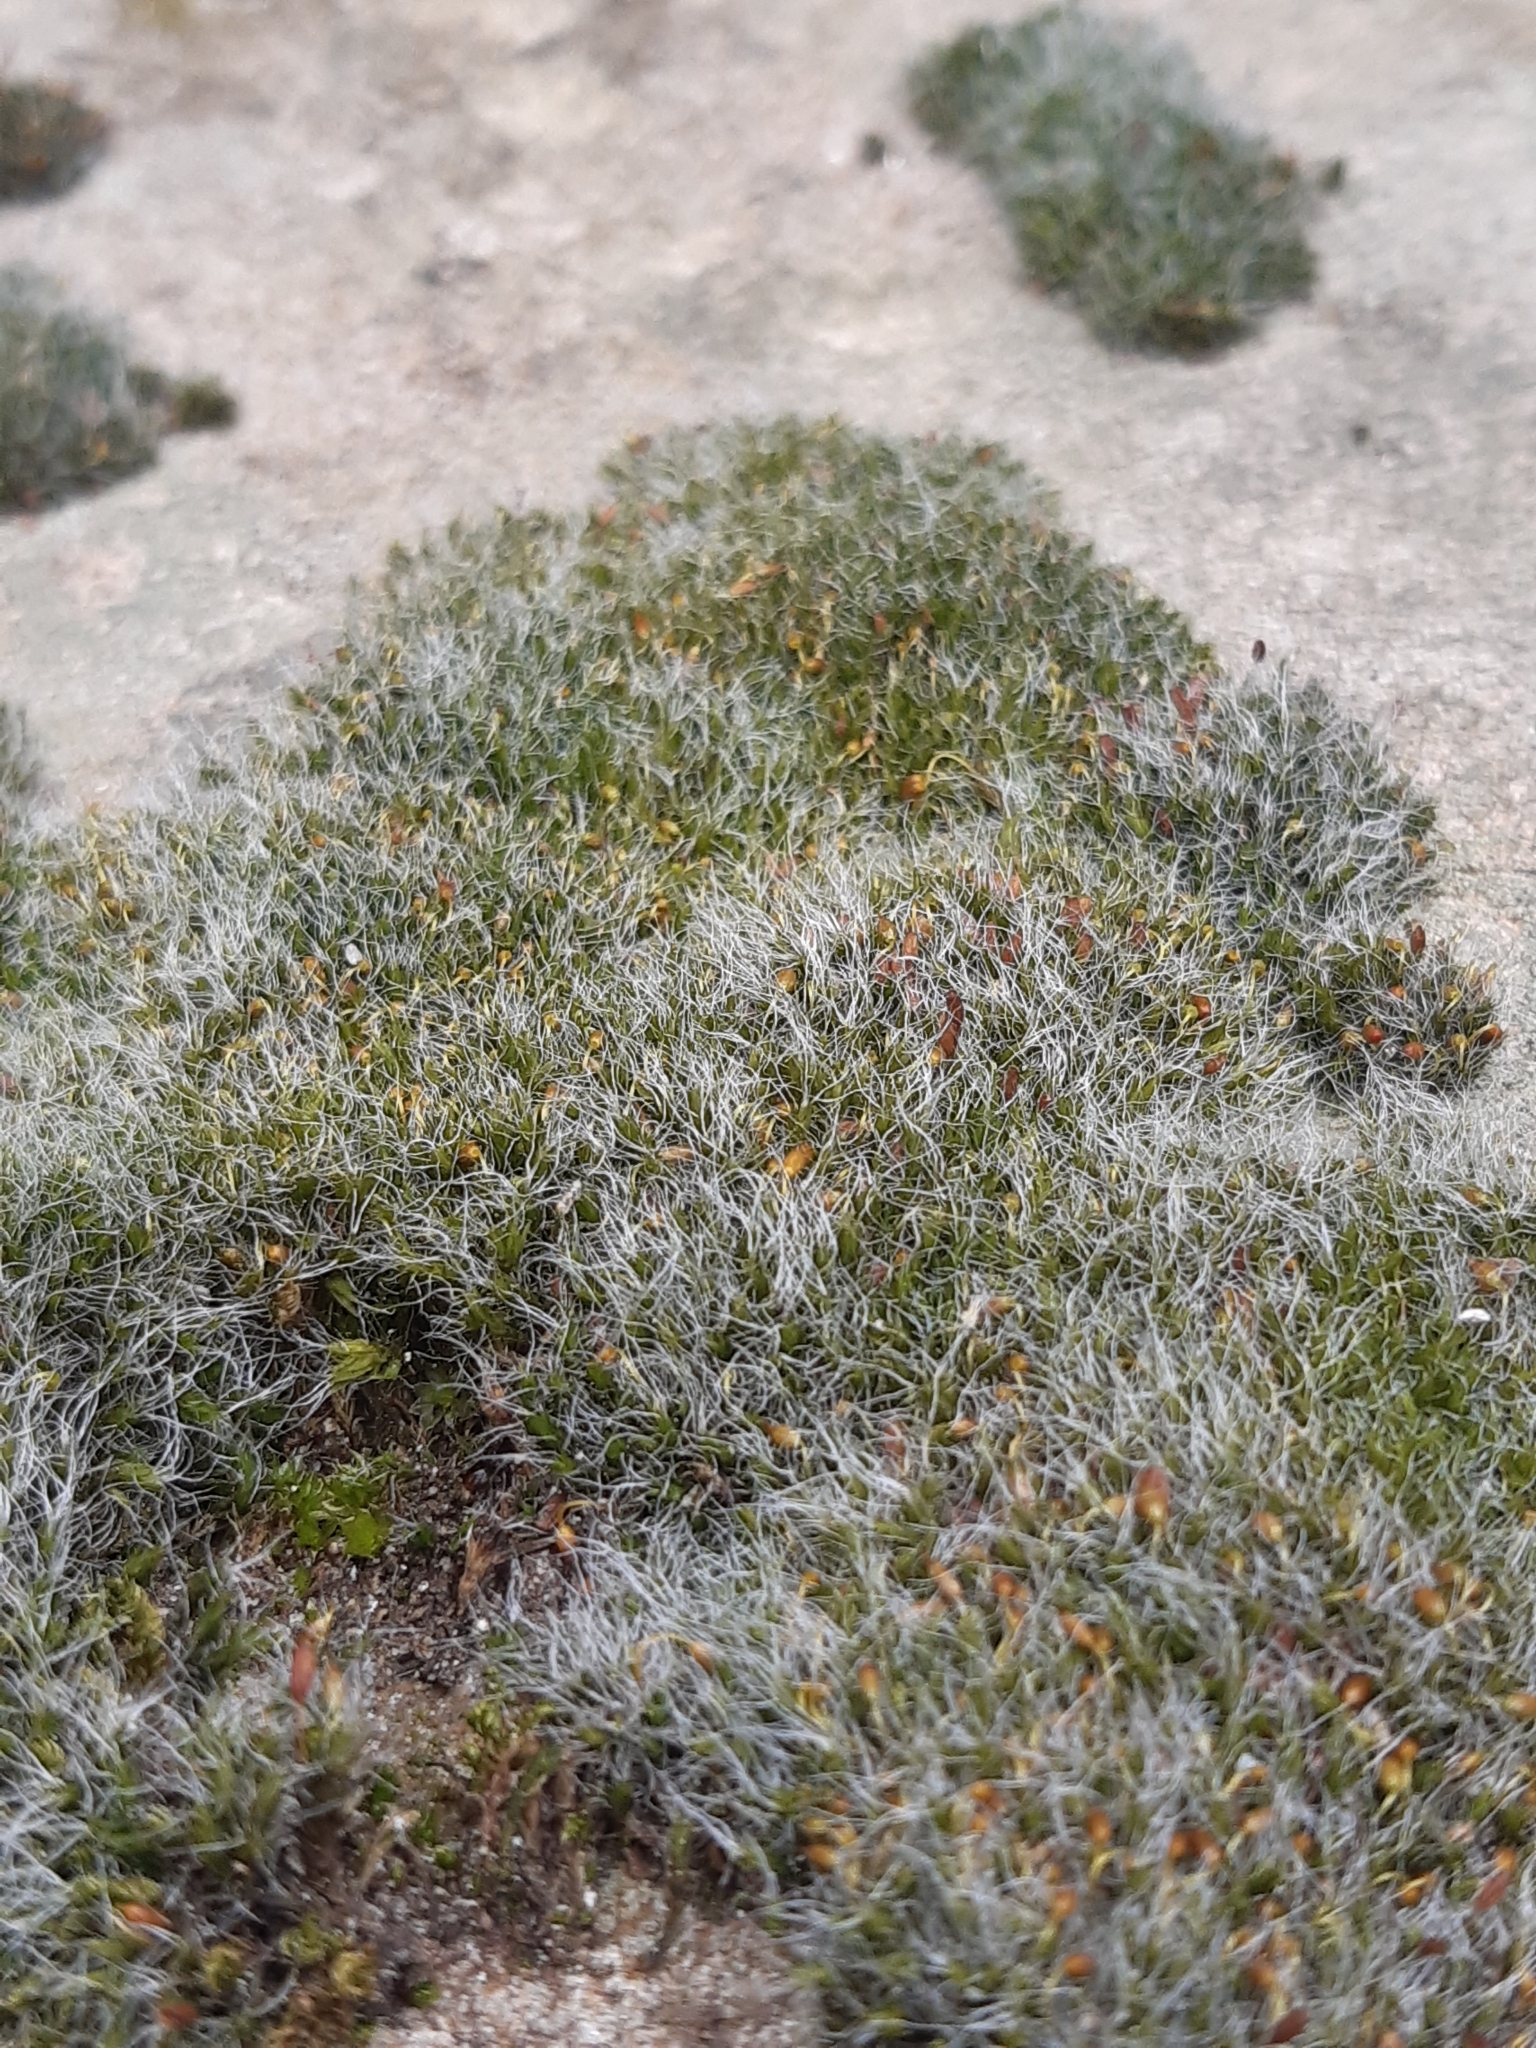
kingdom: Plantae
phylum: Bryophyta
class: Bryopsida
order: Grimmiales
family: Grimmiaceae
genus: Grimmia
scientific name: Grimmia pulvinata
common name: Grey-cushioned grimmia
